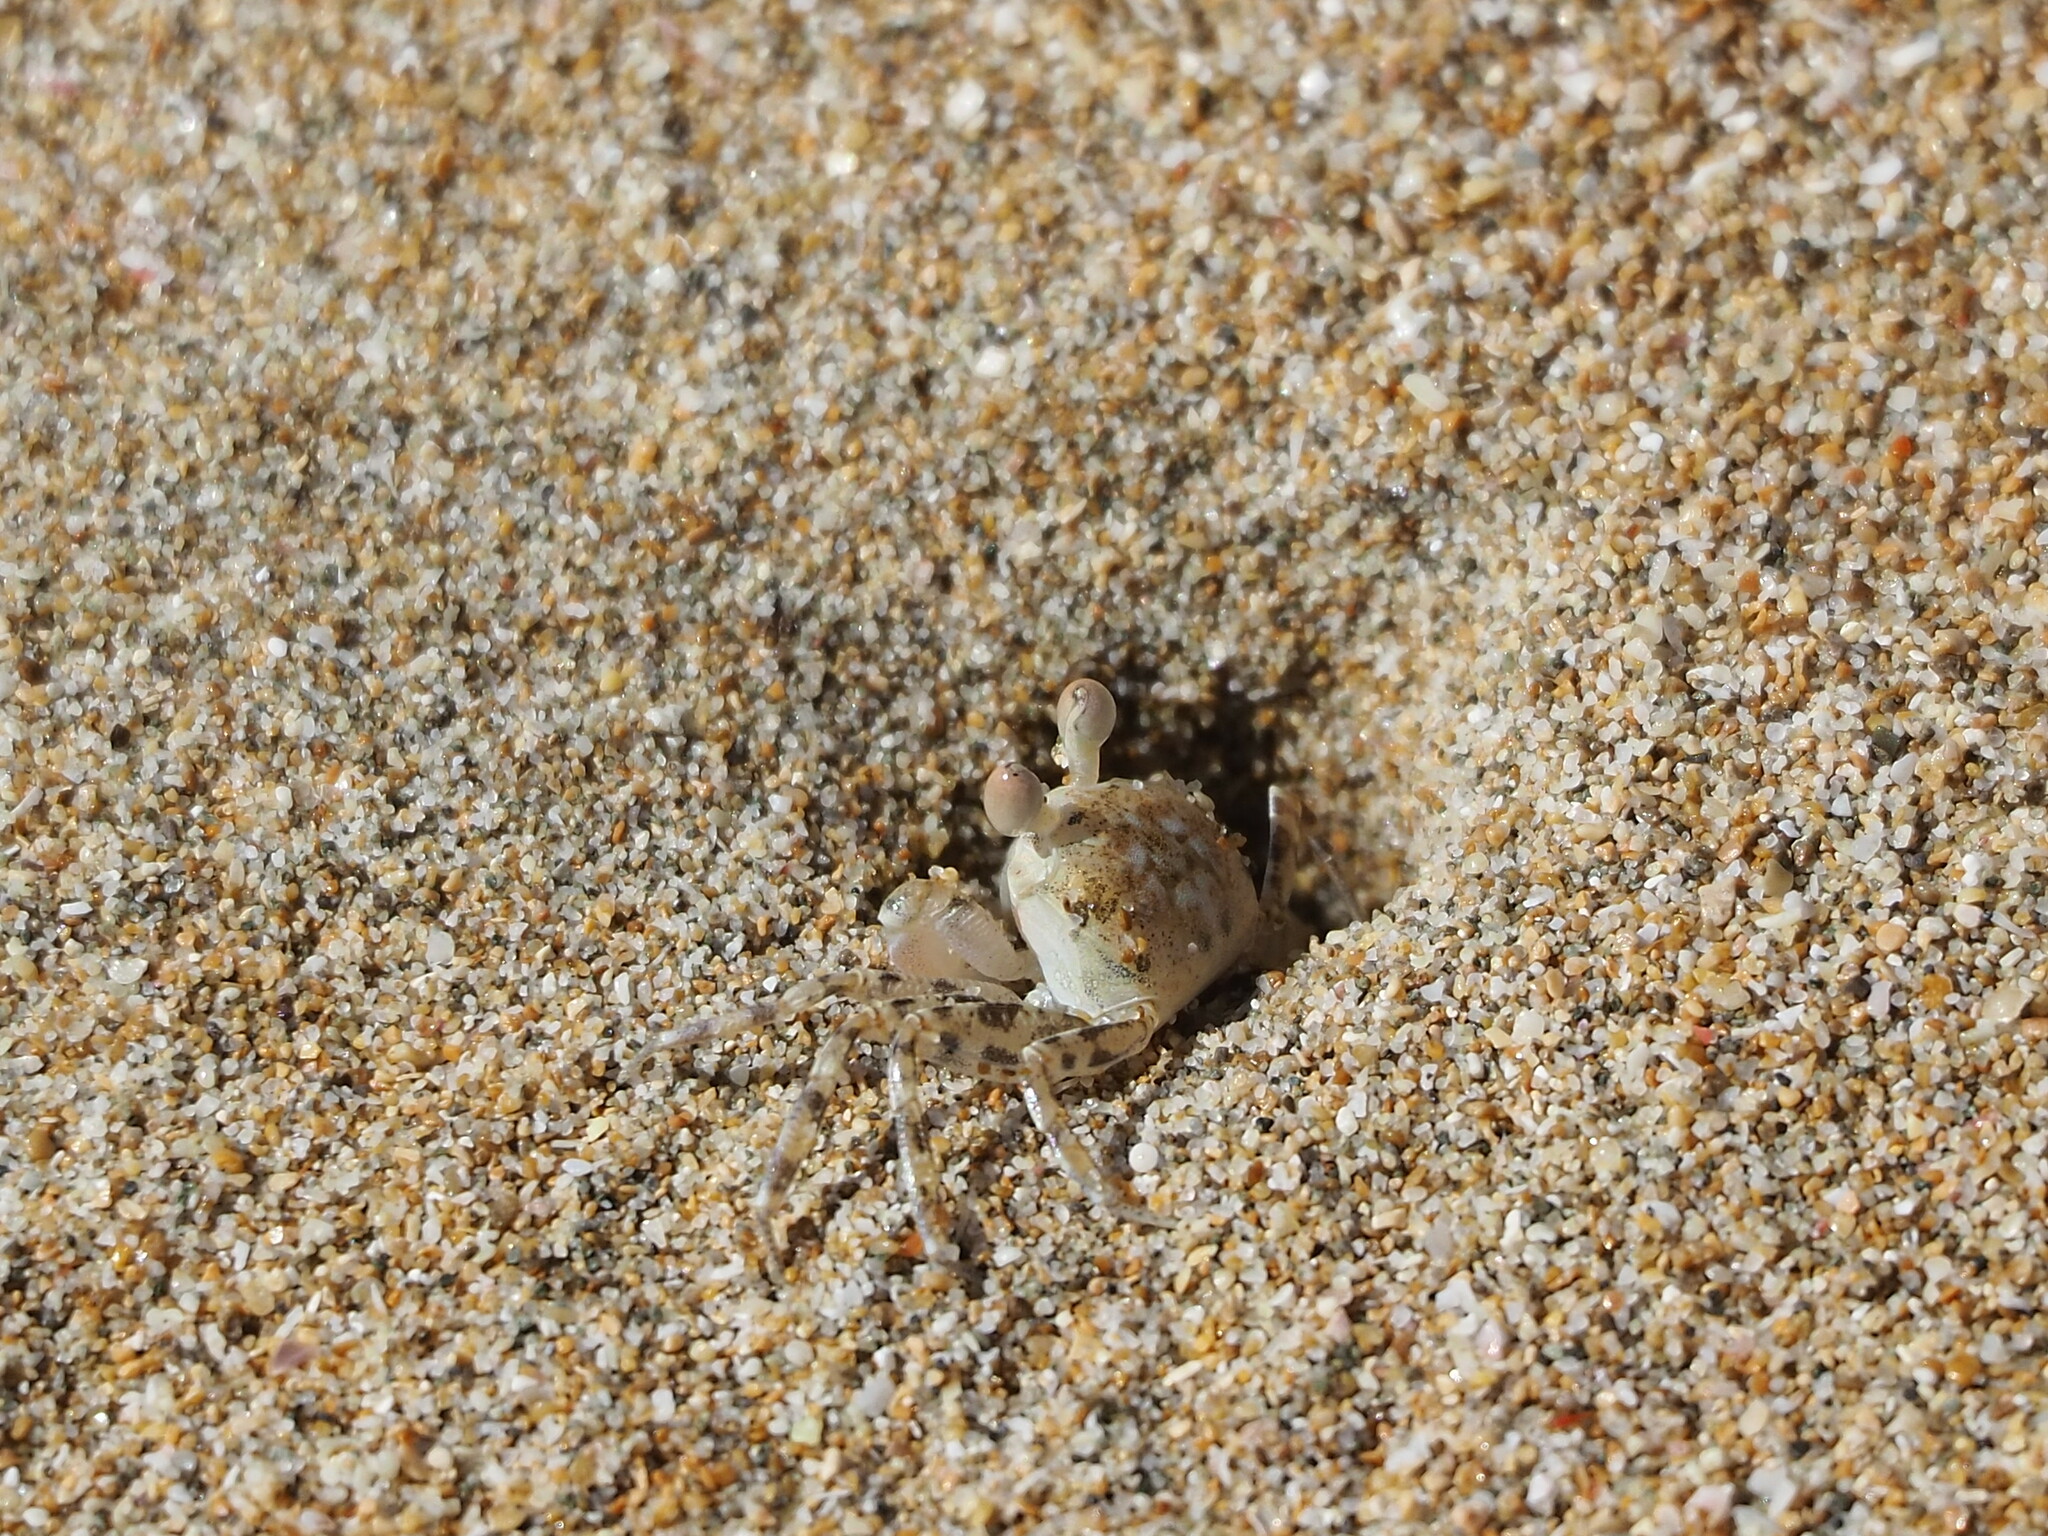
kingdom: Animalia
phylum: Arthropoda
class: Malacostraca
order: Decapoda
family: Ocypodidae
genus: Ocypode
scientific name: Ocypode ceratophthalmus
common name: Indo-pacific ghost crab
